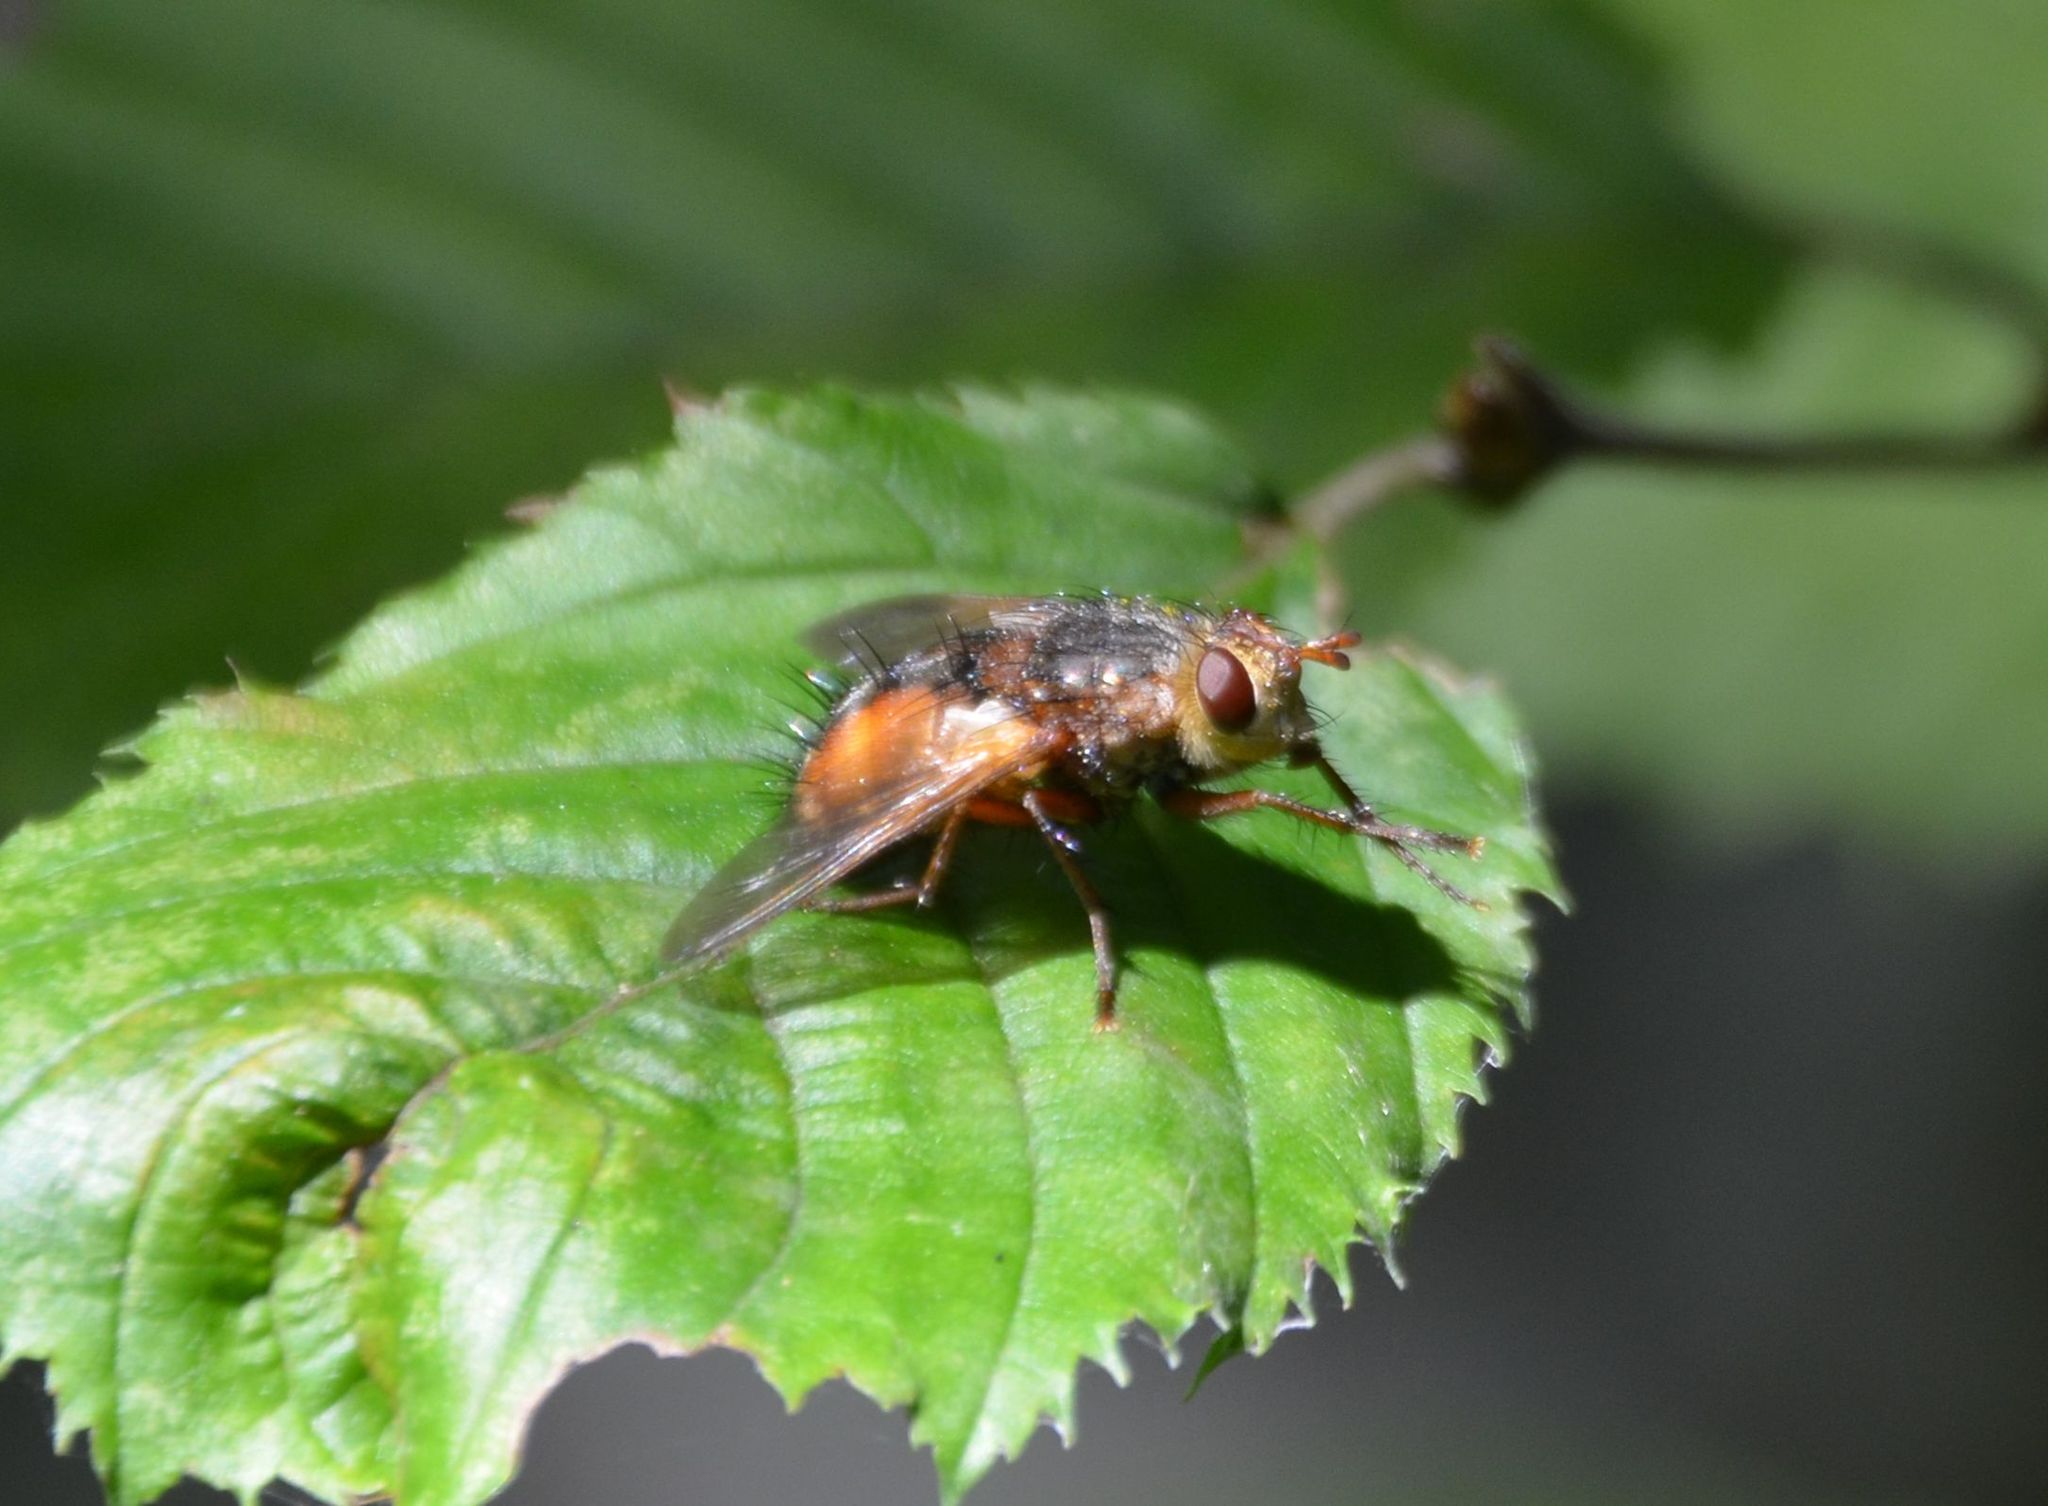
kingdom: Animalia
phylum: Arthropoda
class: Insecta
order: Diptera
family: Tachinidae
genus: Tachina
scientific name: Tachina fera
